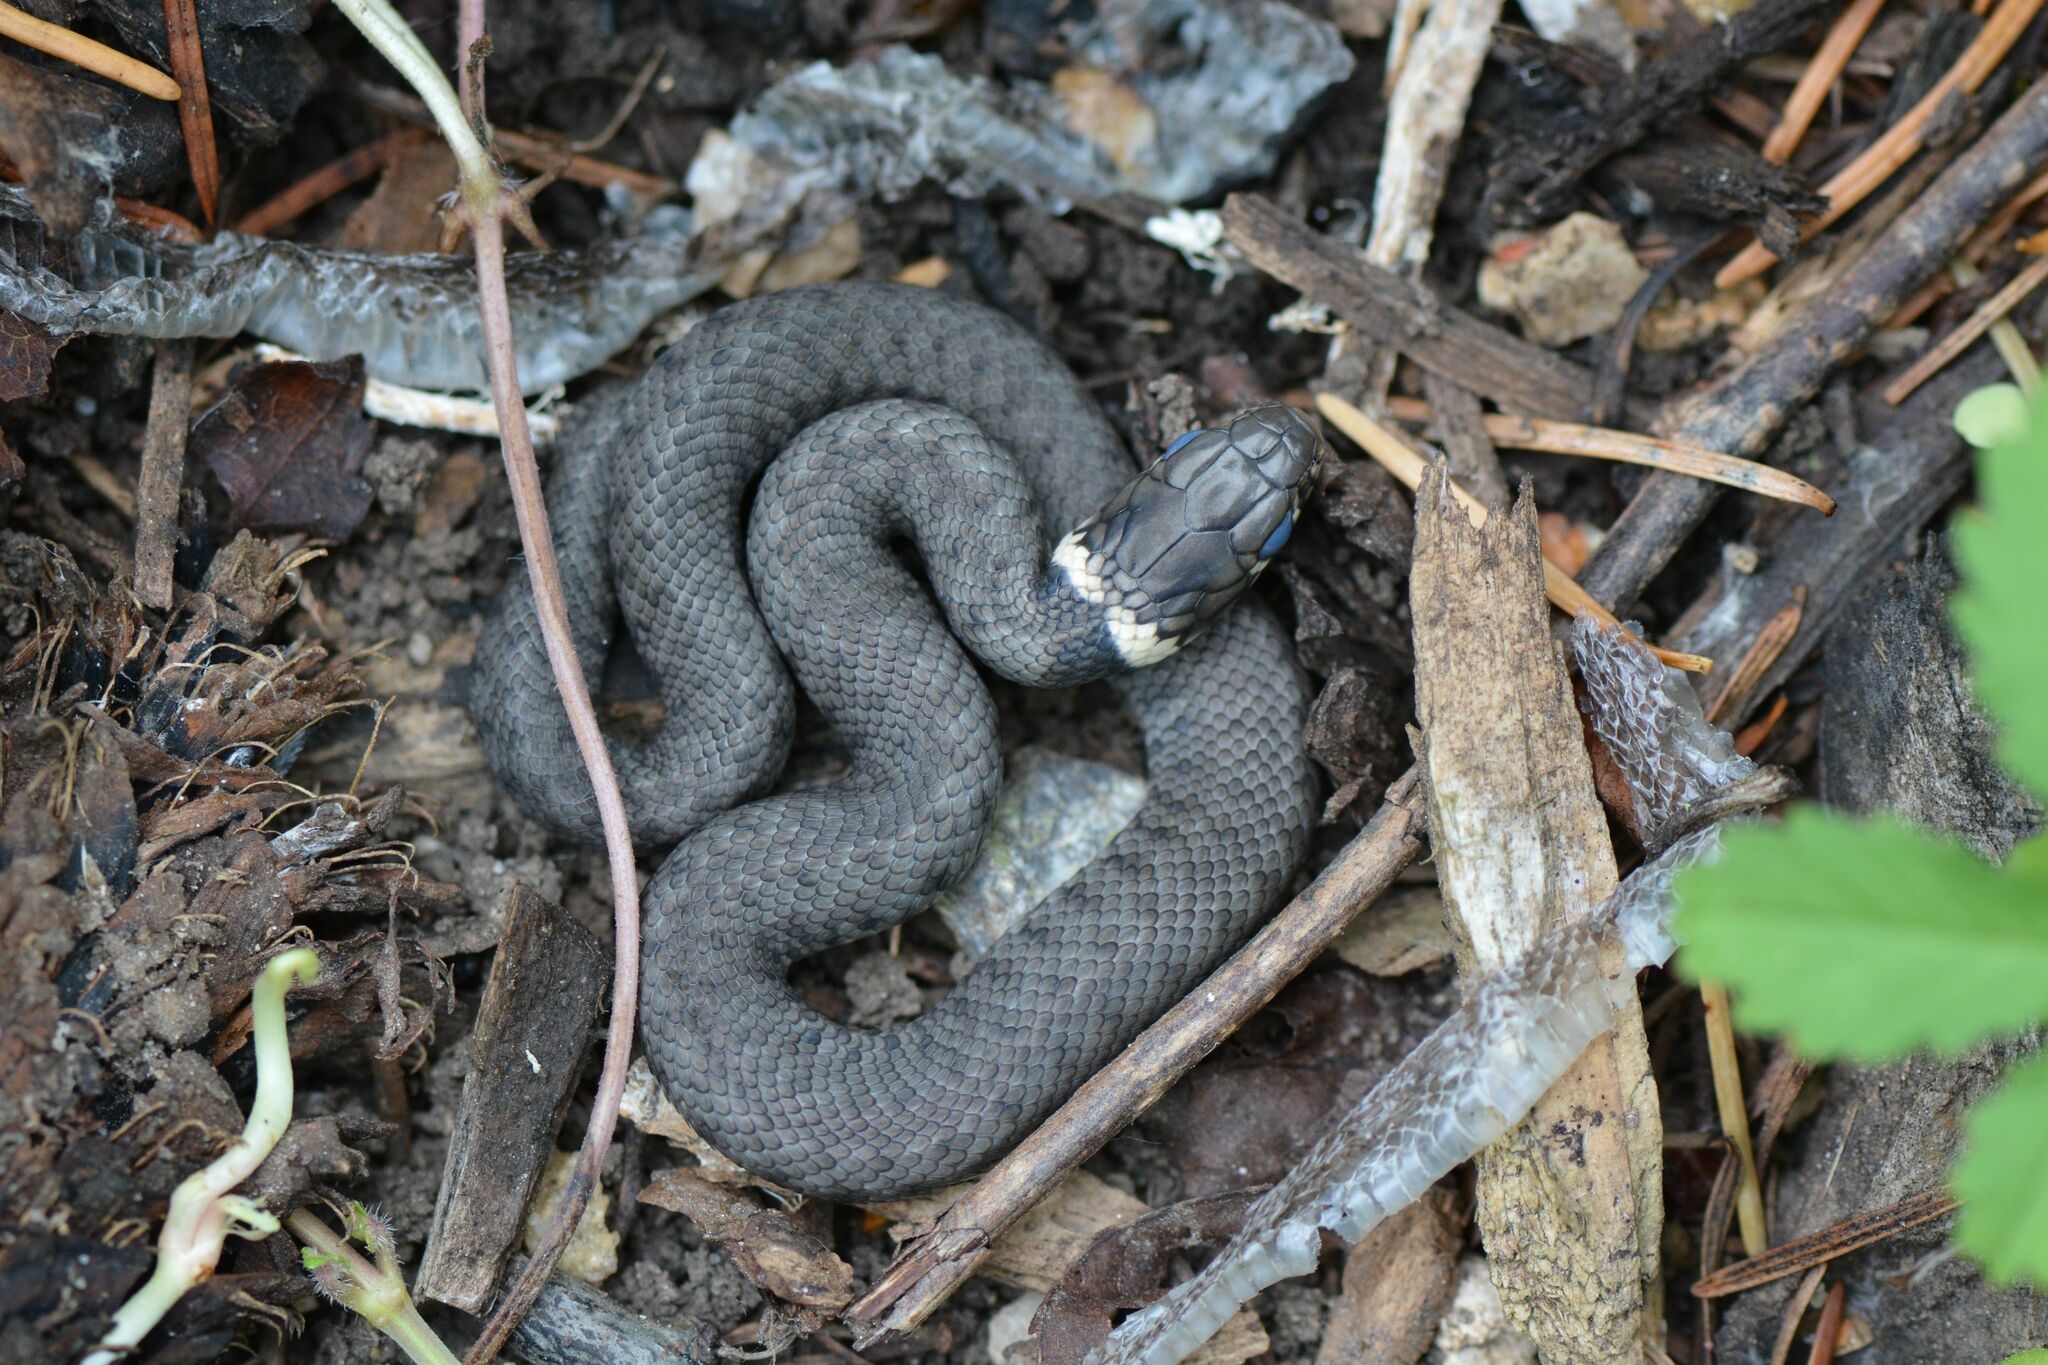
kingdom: Animalia
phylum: Chordata
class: Squamata
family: Colubridae
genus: Natrix
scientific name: Natrix helvetica
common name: Banded grass snake
